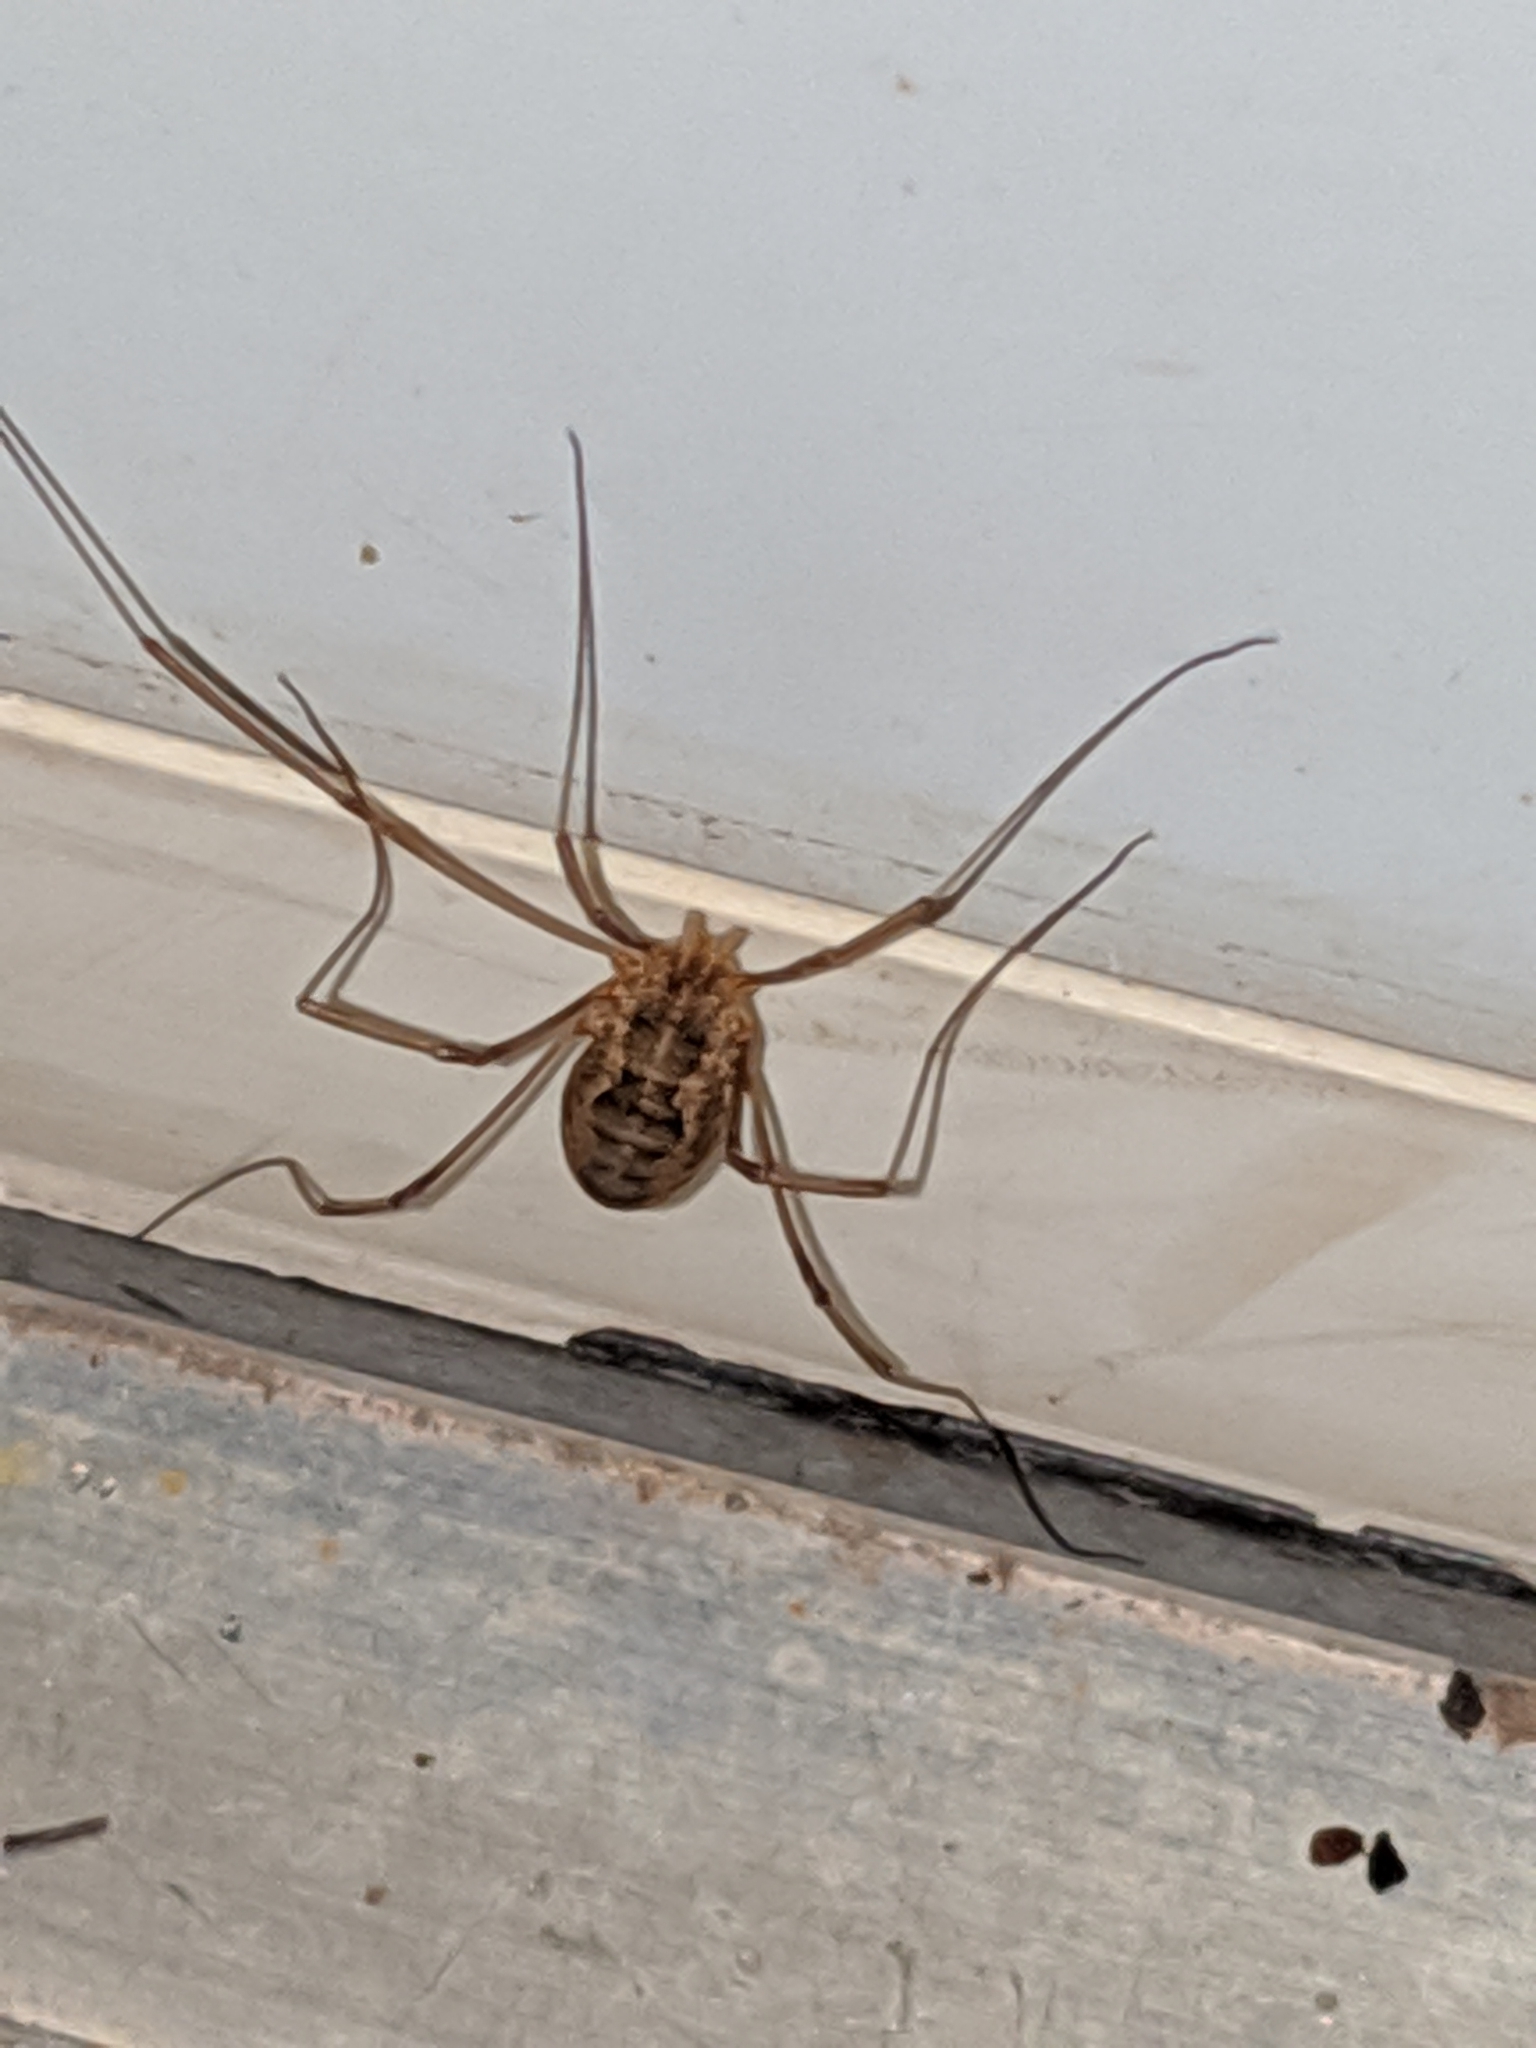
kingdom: Animalia
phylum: Arthropoda
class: Arachnida
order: Opiliones
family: Phalangiidae
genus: Phalangium
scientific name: Phalangium opilio
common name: Daddy longleg
